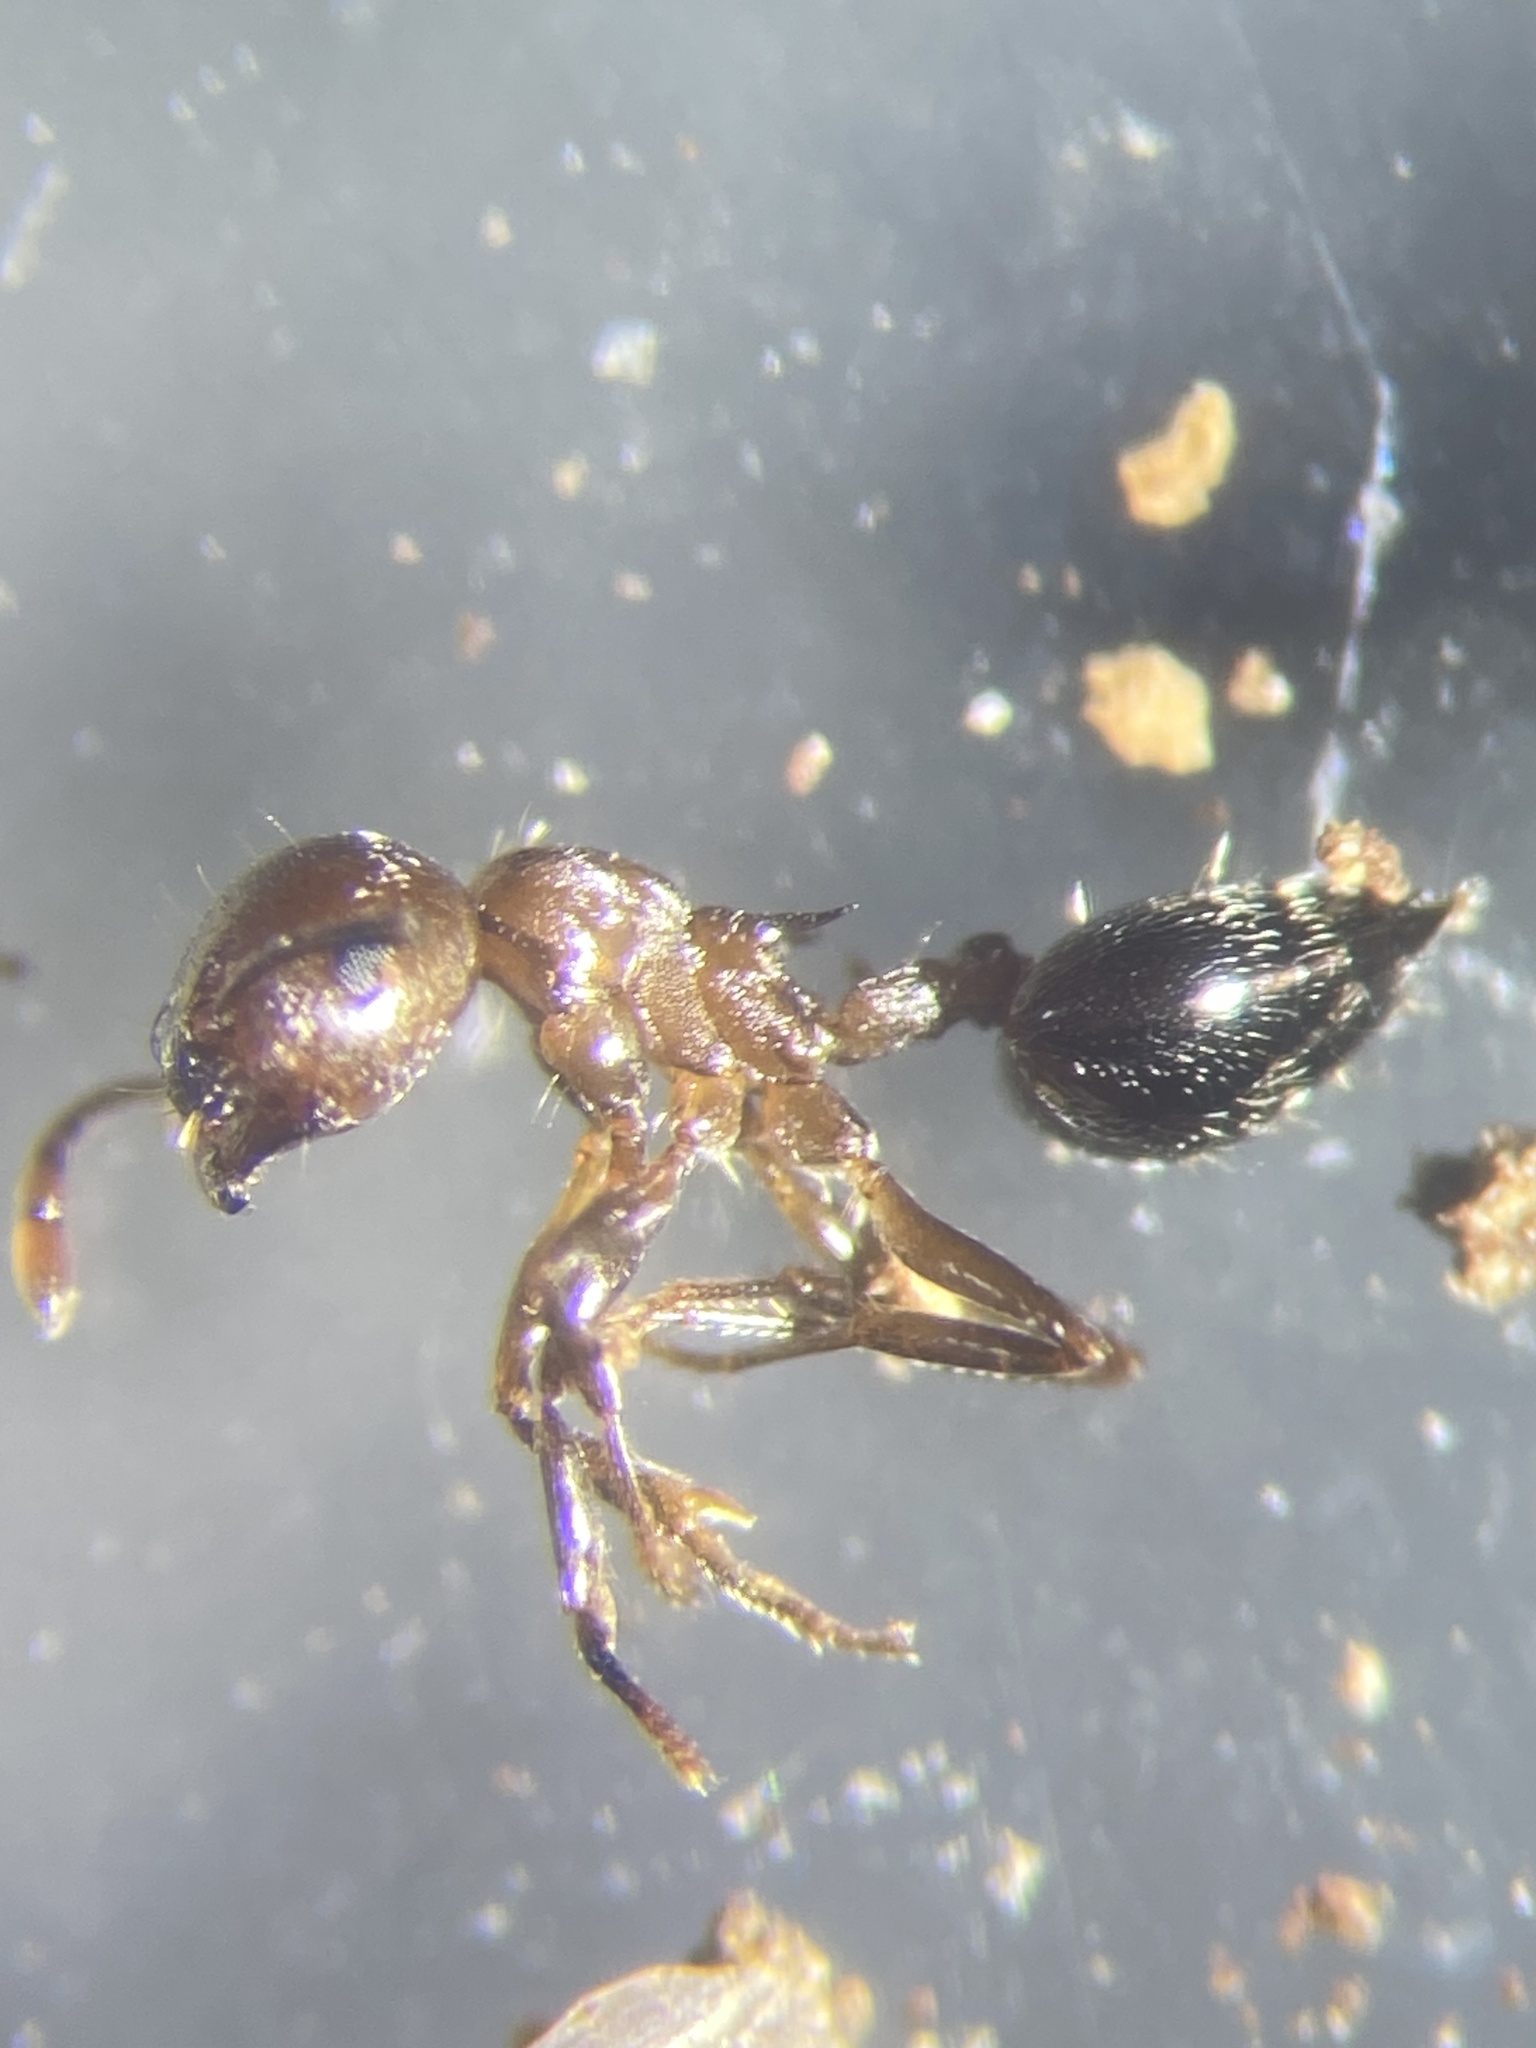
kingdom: Animalia
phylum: Arthropoda
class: Insecta
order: Hymenoptera
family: Formicidae
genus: Crematogaster
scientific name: Crematogaster cerasi
